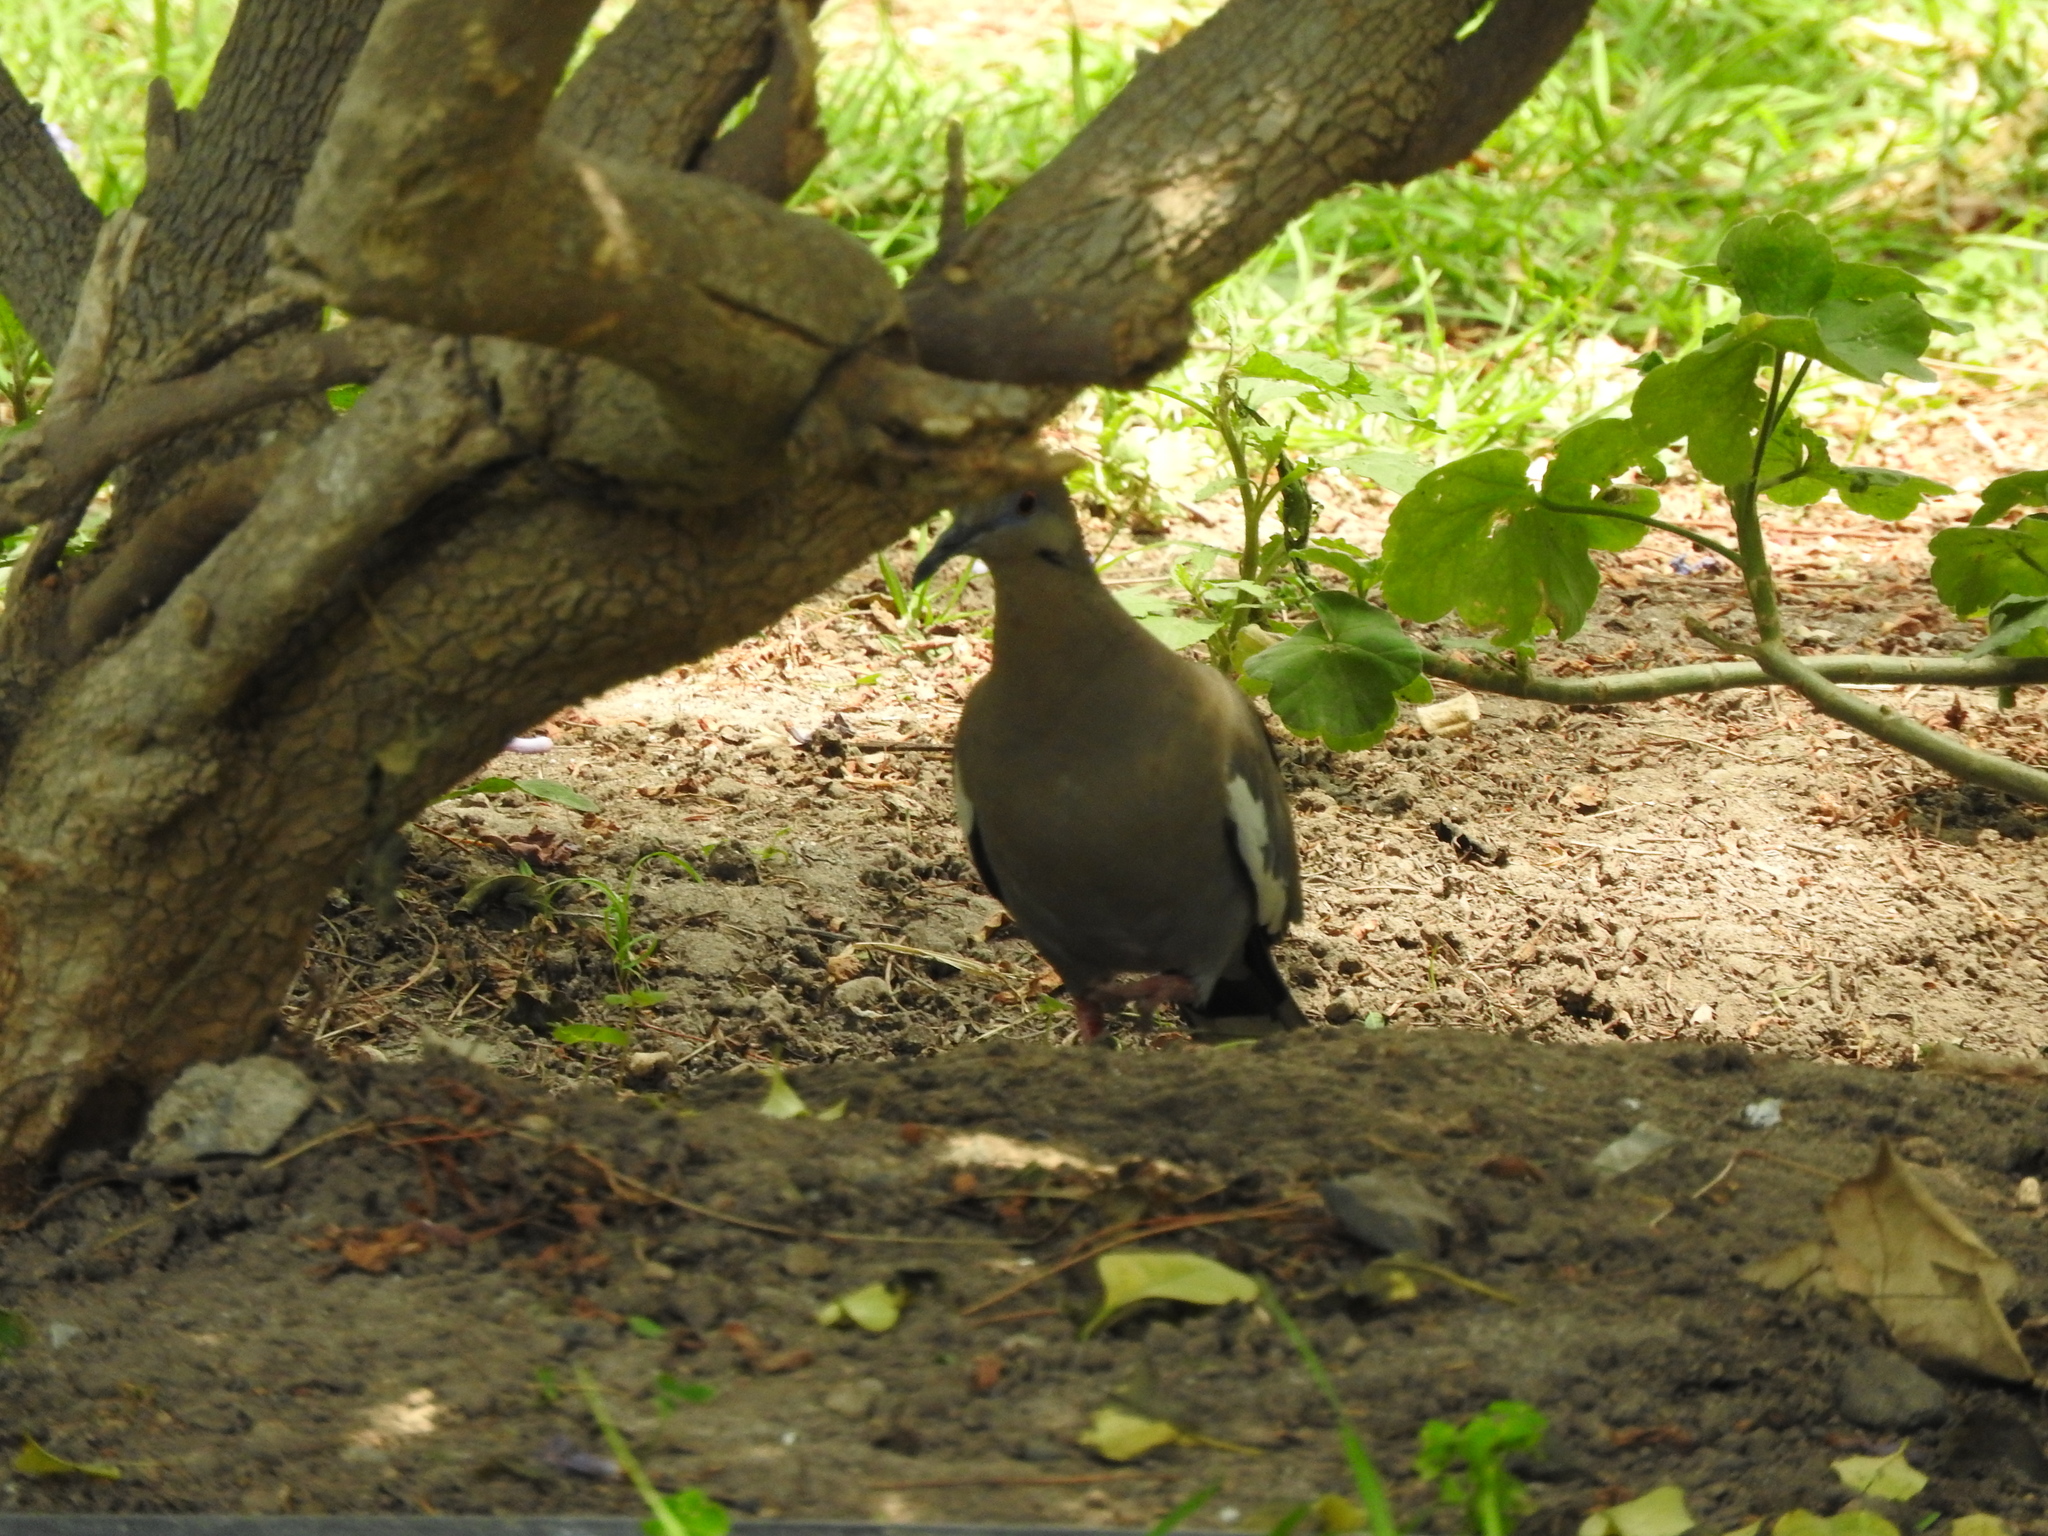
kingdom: Animalia
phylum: Chordata
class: Aves
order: Columbiformes
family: Columbidae
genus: Zenaida
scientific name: Zenaida asiatica
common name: White-winged dove
